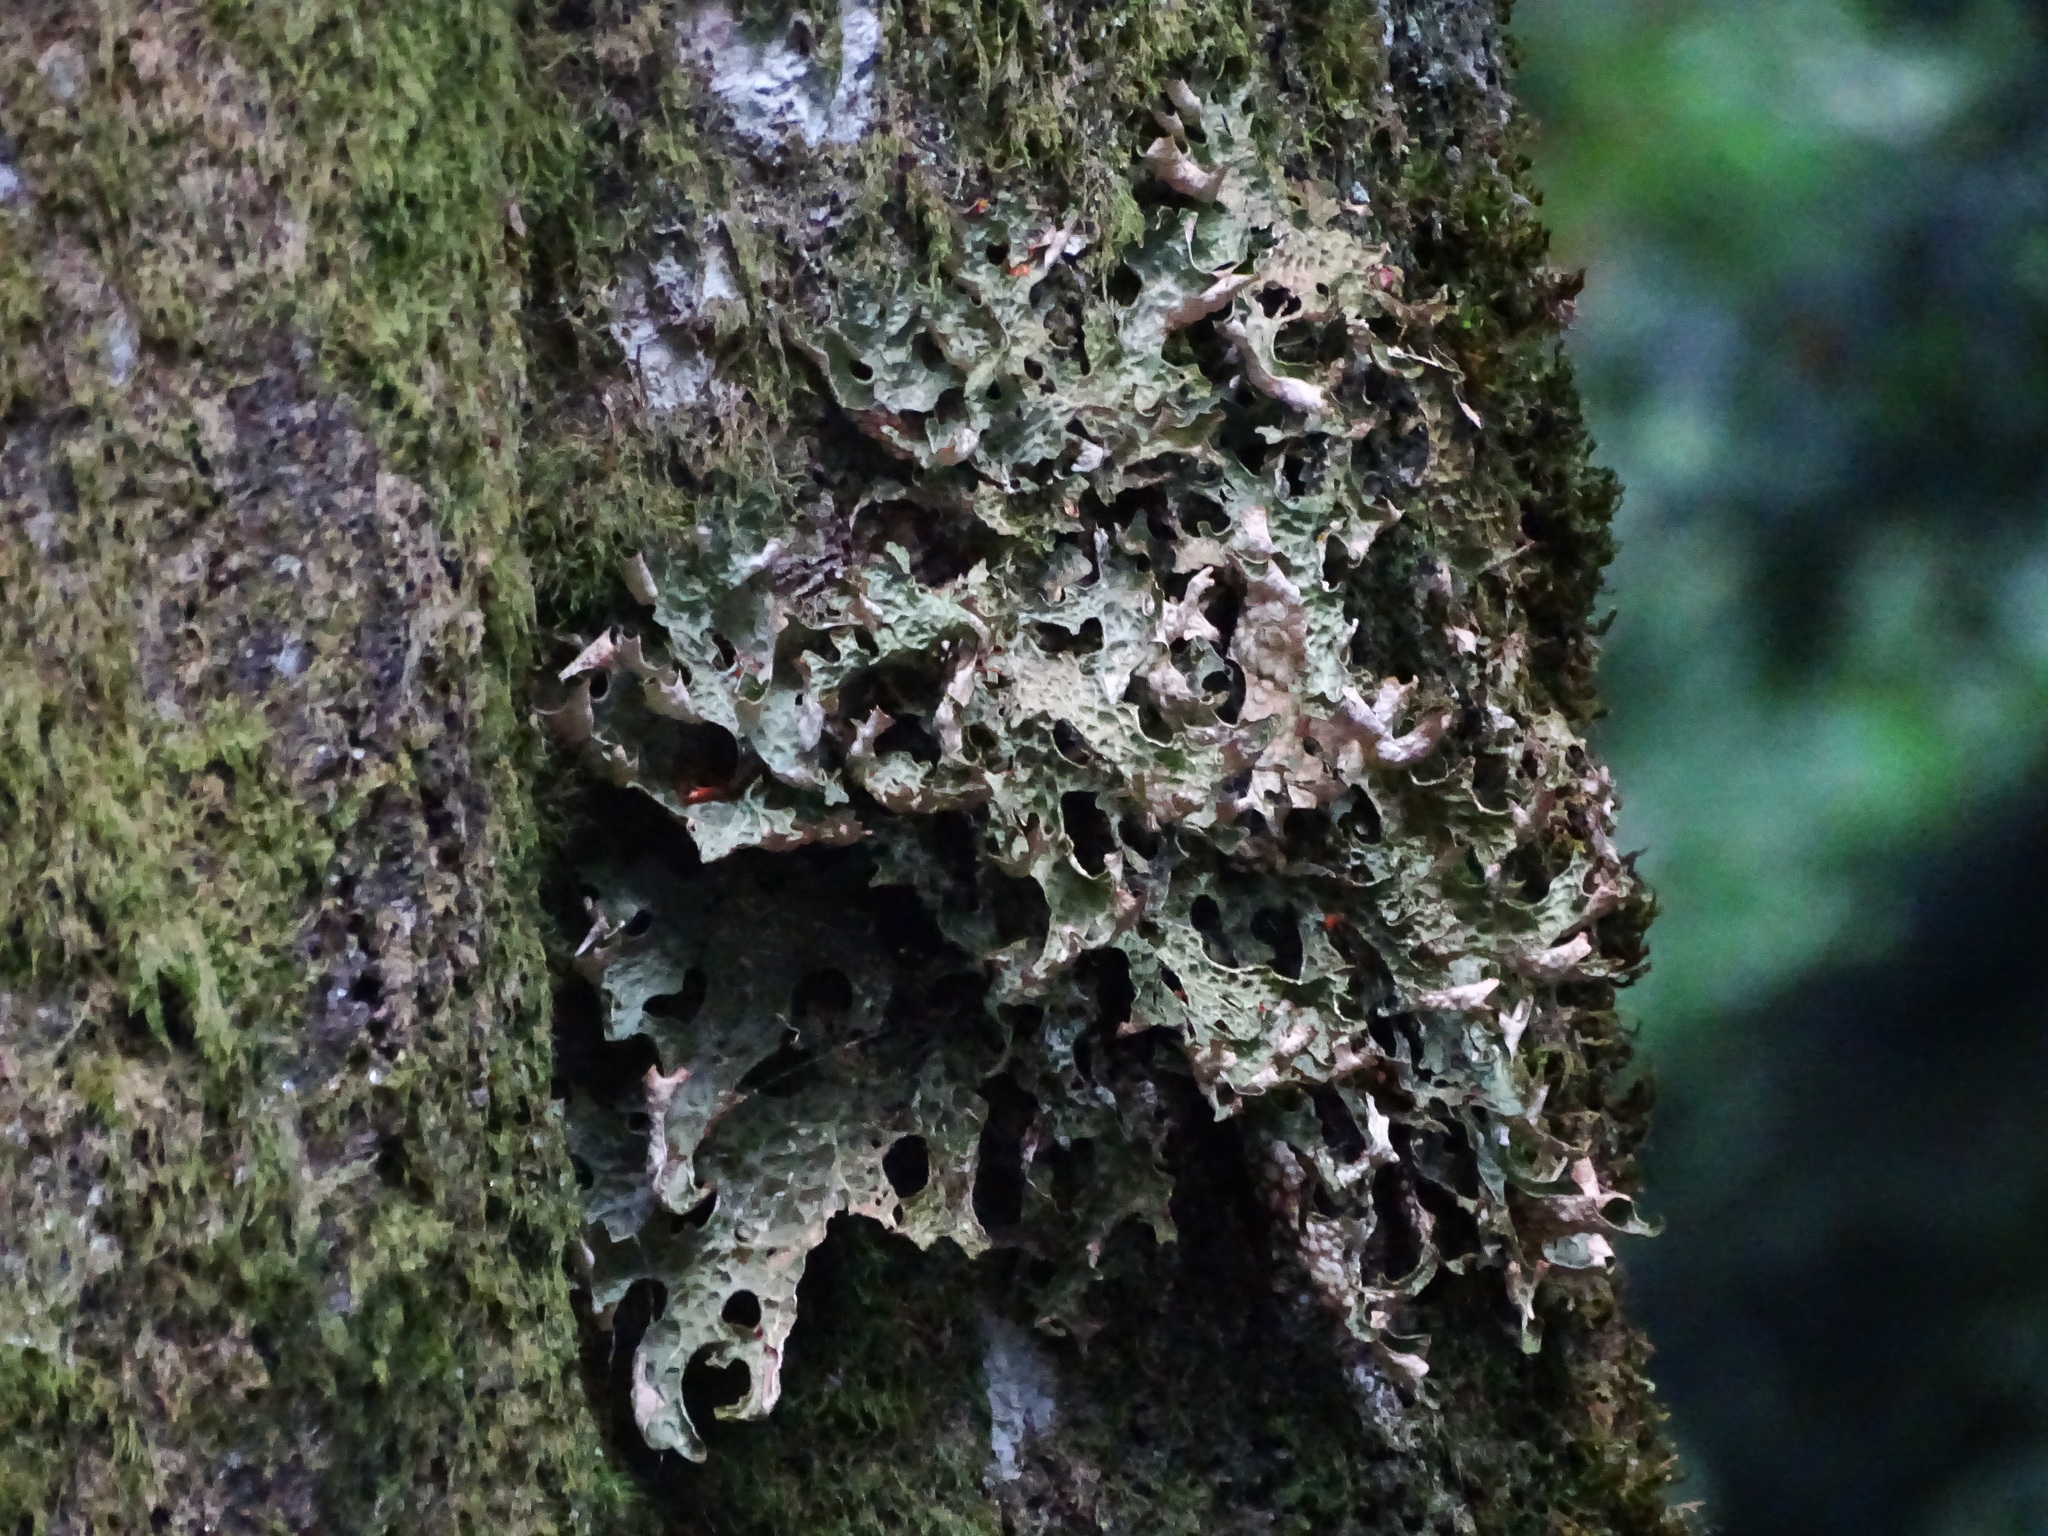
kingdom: Fungi
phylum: Ascomycota
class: Lecanoromycetes
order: Peltigerales
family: Lobariaceae
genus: Lobaria
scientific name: Lobaria pulmonaria
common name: Lungwort
